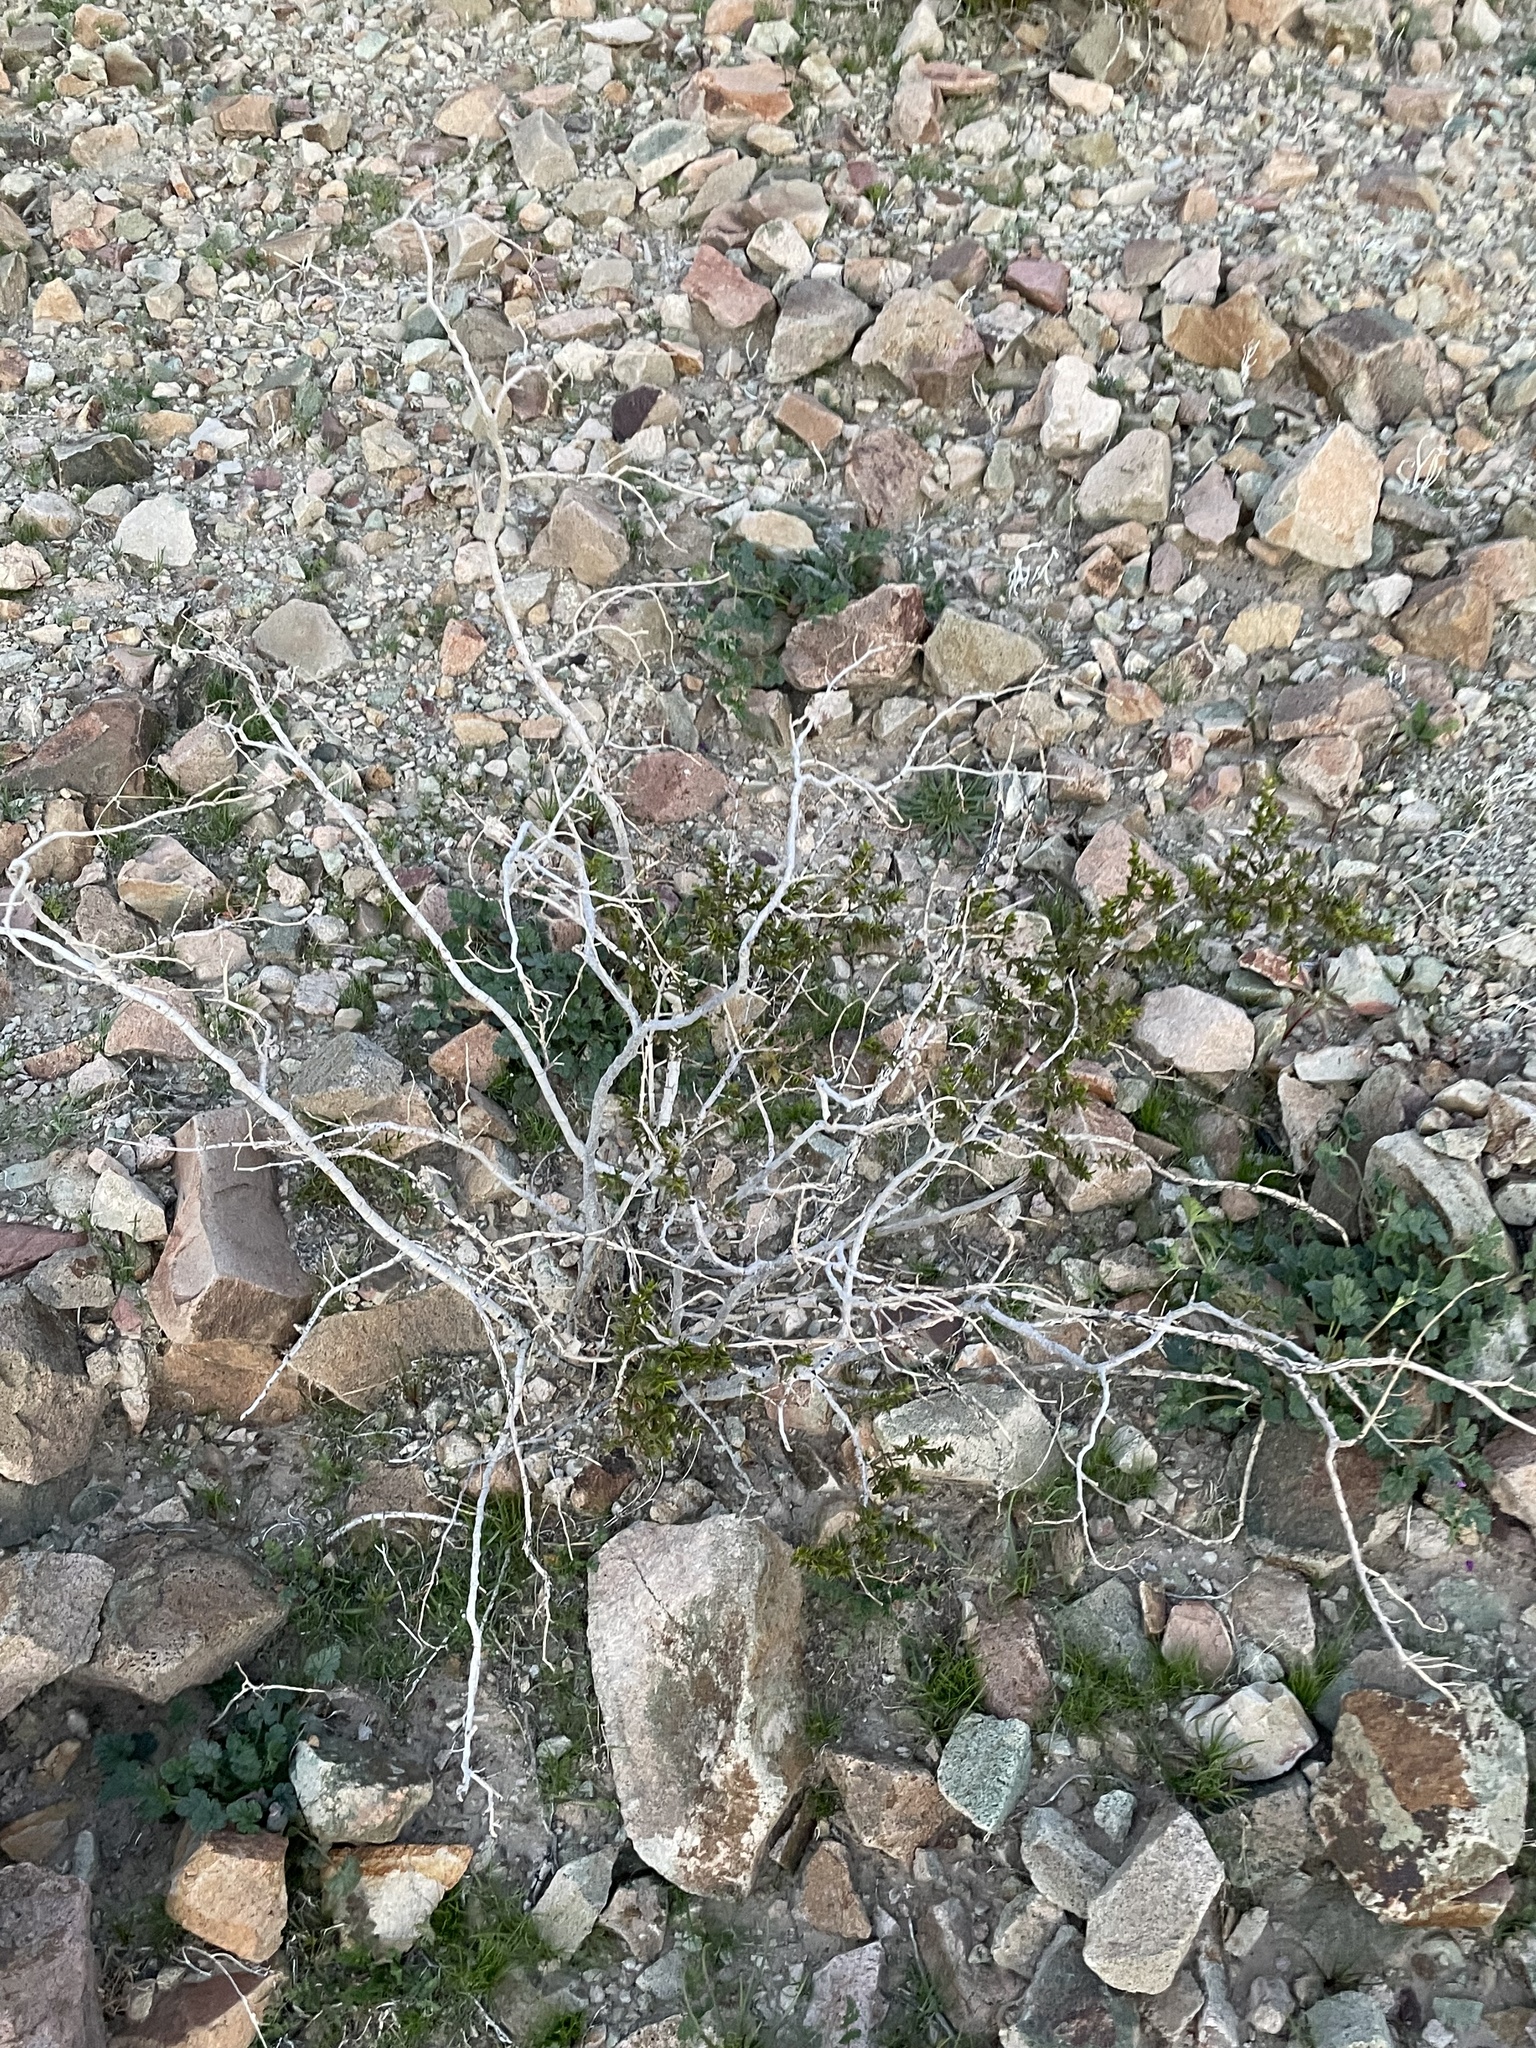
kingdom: Plantae
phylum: Tracheophyta
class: Magnoliopsida
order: Zygophyllales
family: Zygophyllaceae
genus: Larrea
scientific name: Larrea tridentata
